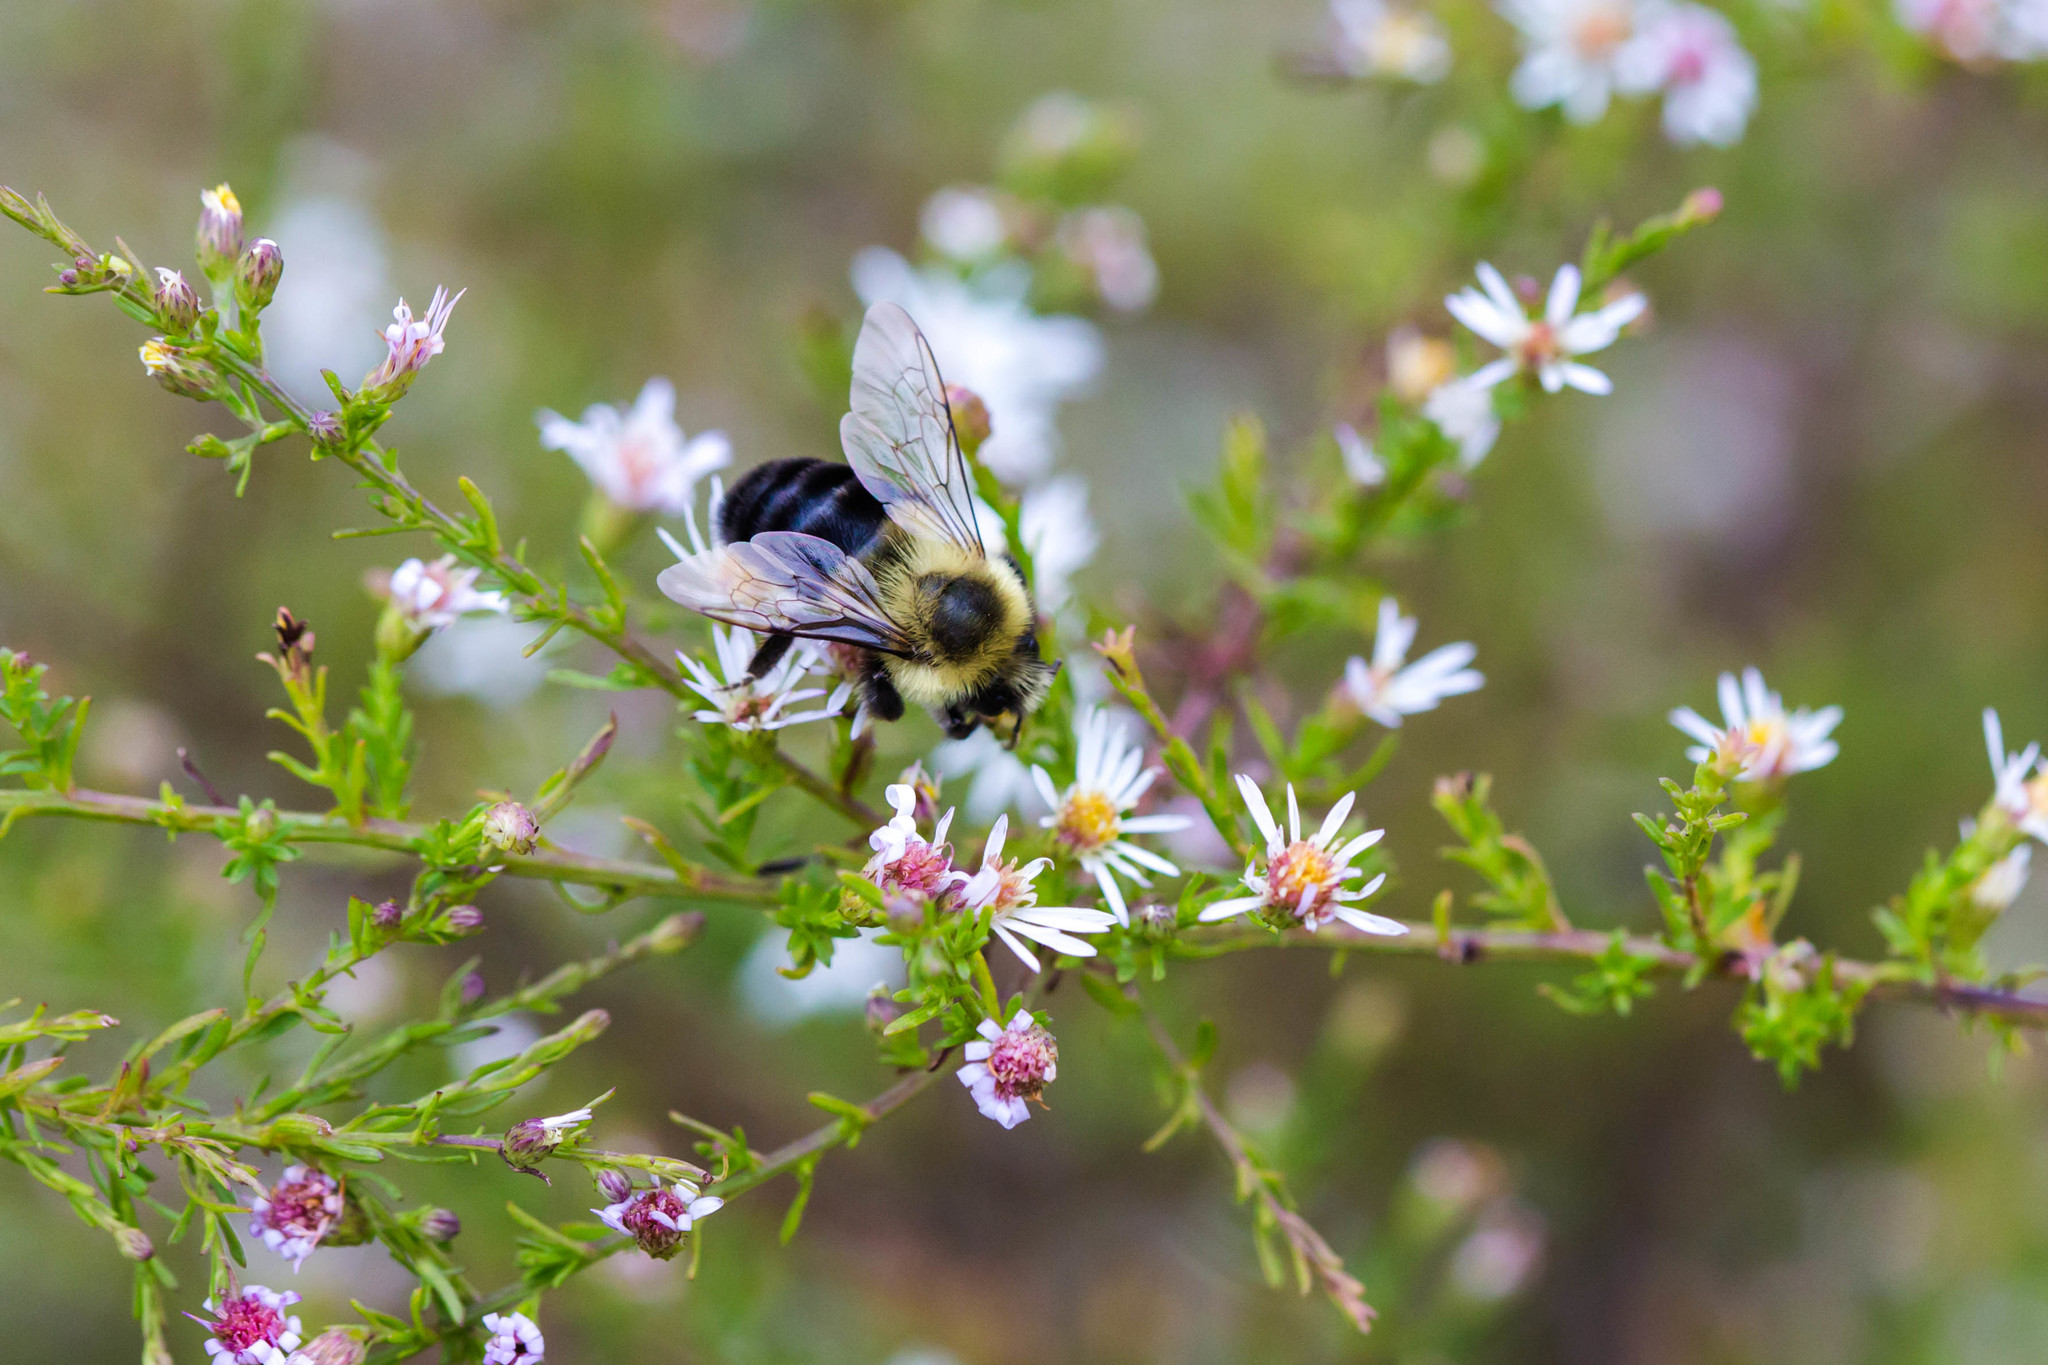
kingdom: Animalia
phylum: Arthropoda
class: Insecta
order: Hymenoptera
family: Apidae
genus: Bombus
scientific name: Bombus impatiens
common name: Common eastern bumble bee
